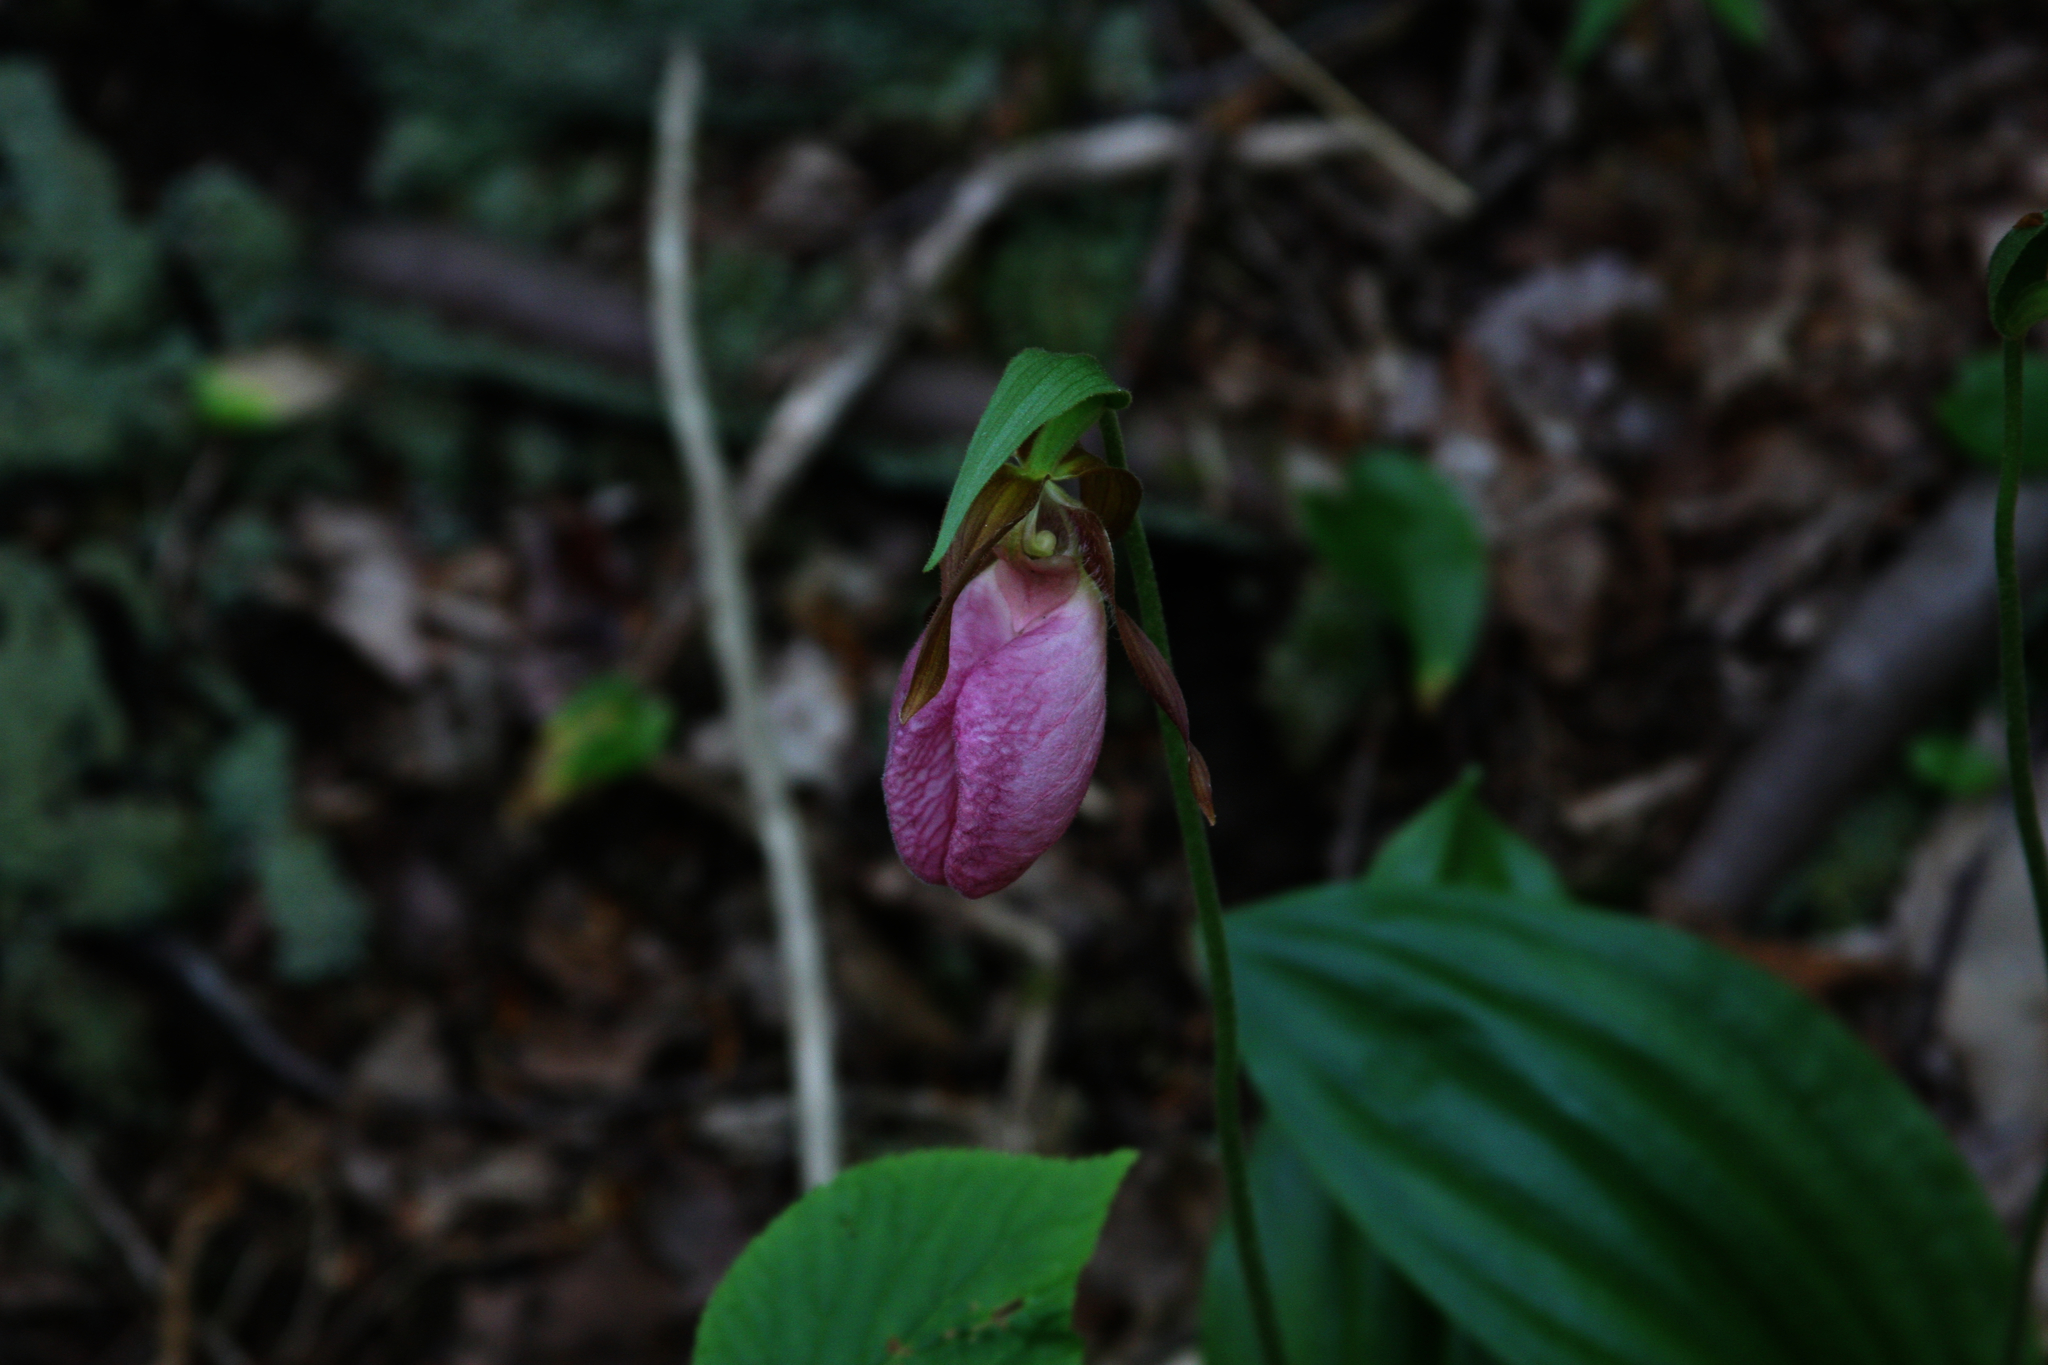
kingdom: Plantae
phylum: Tracheophyta
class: Liliopsida
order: Asparagales
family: Orchidaceae
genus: Cypripedium
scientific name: Cypripedium acaule
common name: Pink lady's-slipper
